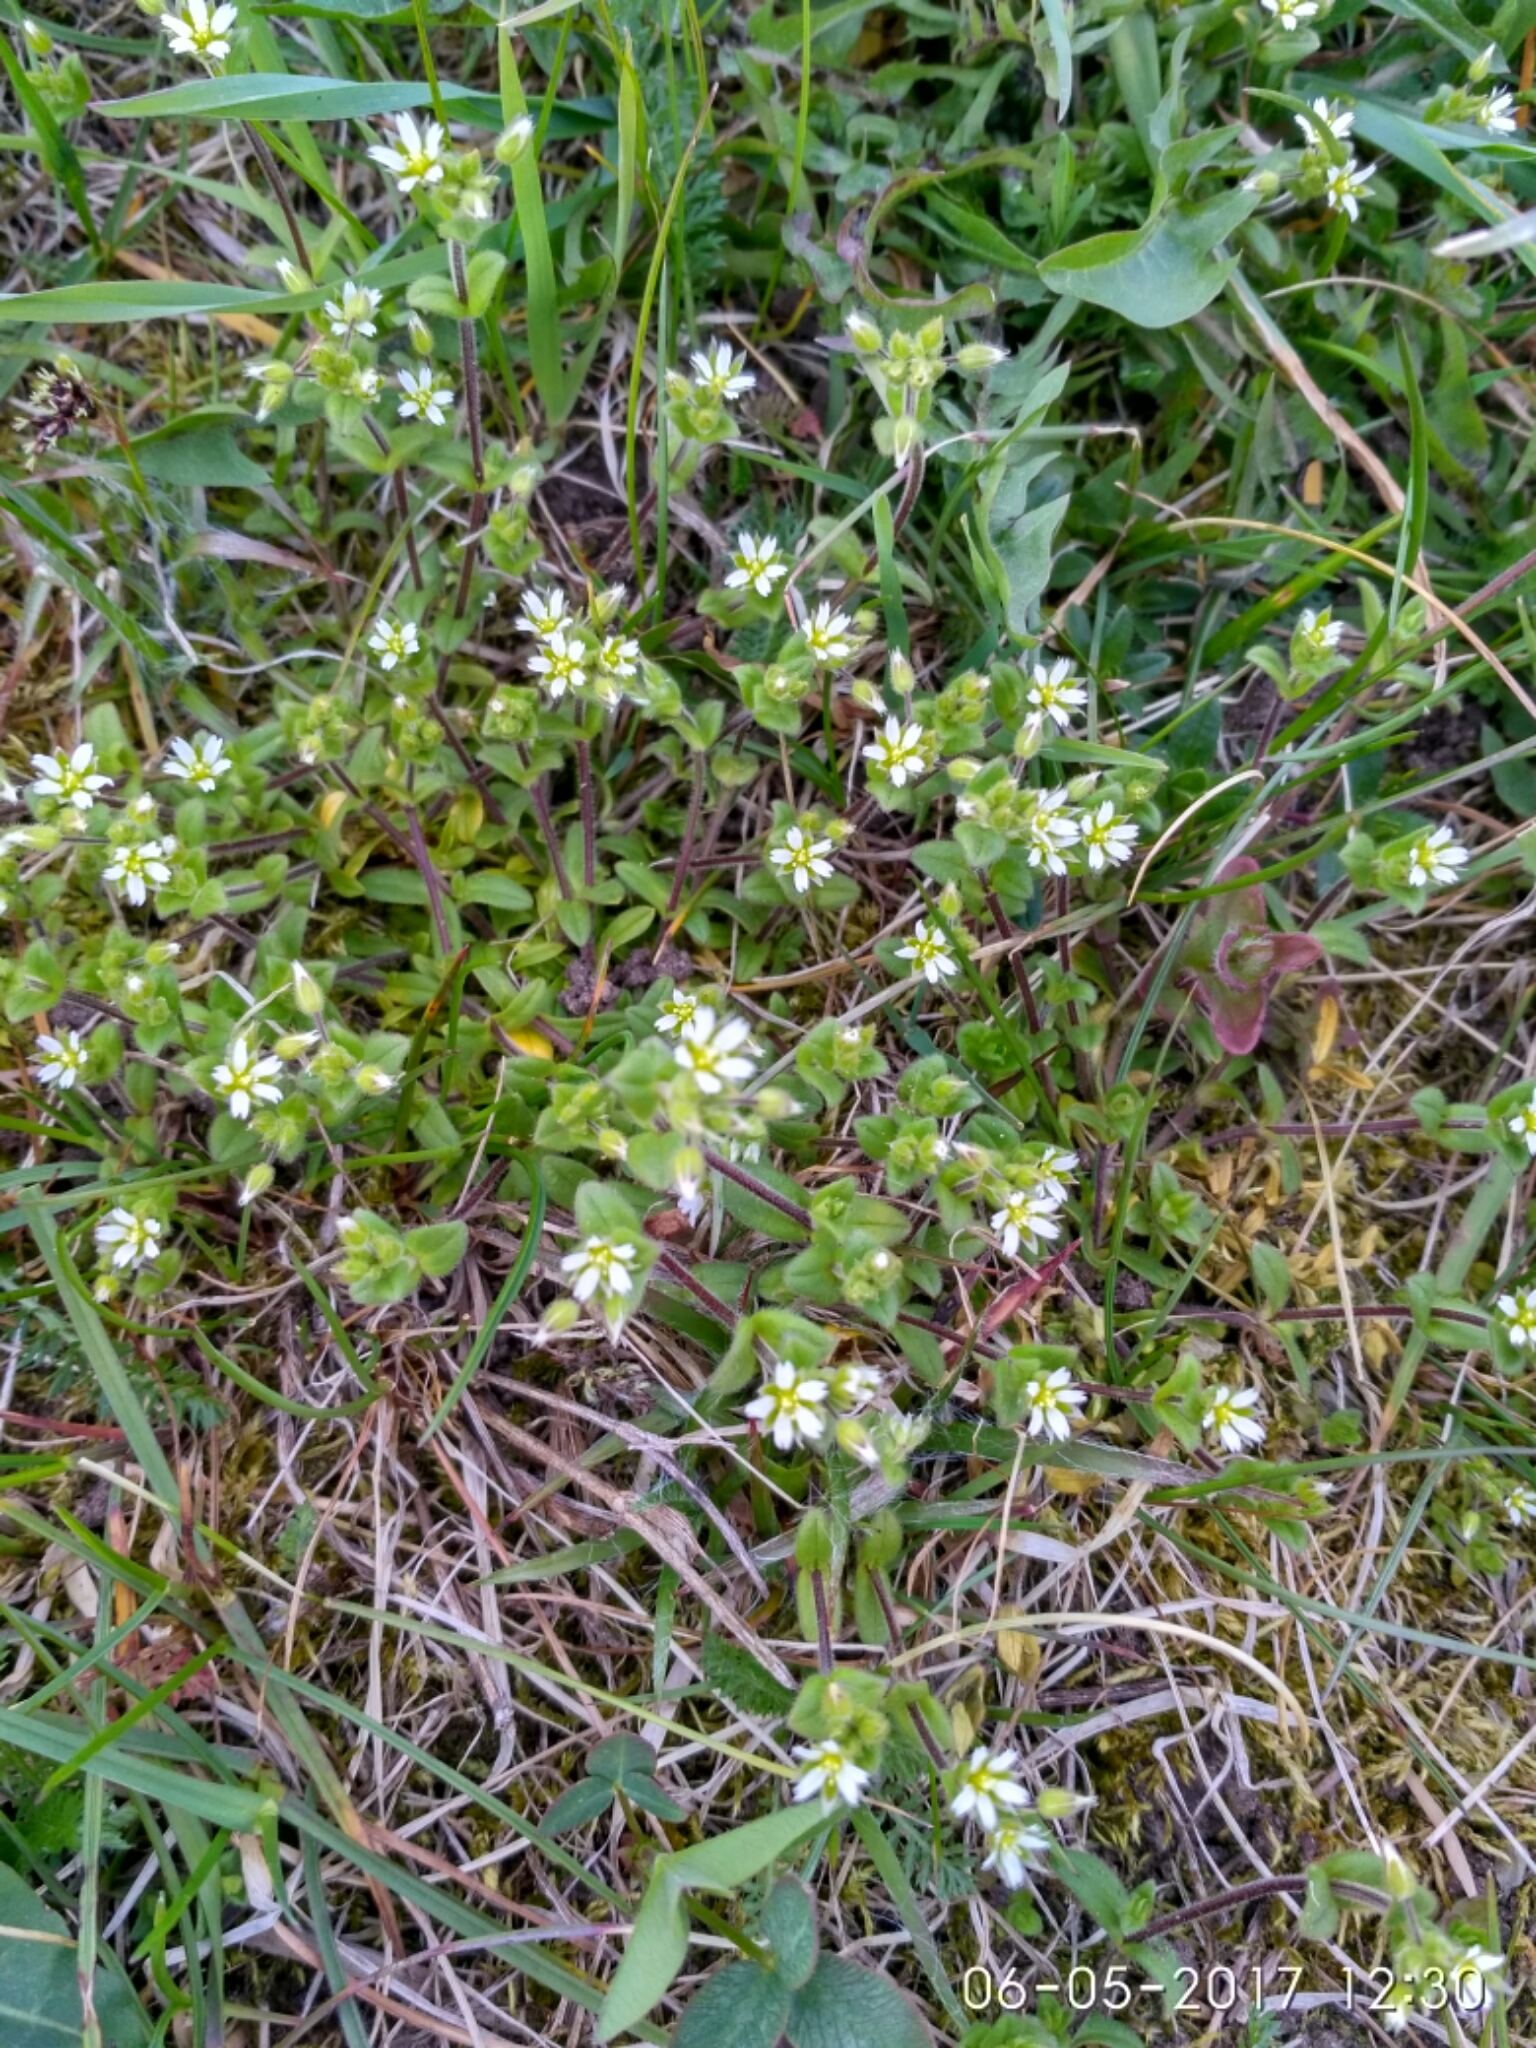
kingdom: Plantae
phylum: Tracheophyta
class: Magnoliopsida
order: Caryophyllales
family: Caryophyllaceae
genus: Cerastium
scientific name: Cerastium semidecandrum
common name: Little mouse-ear
